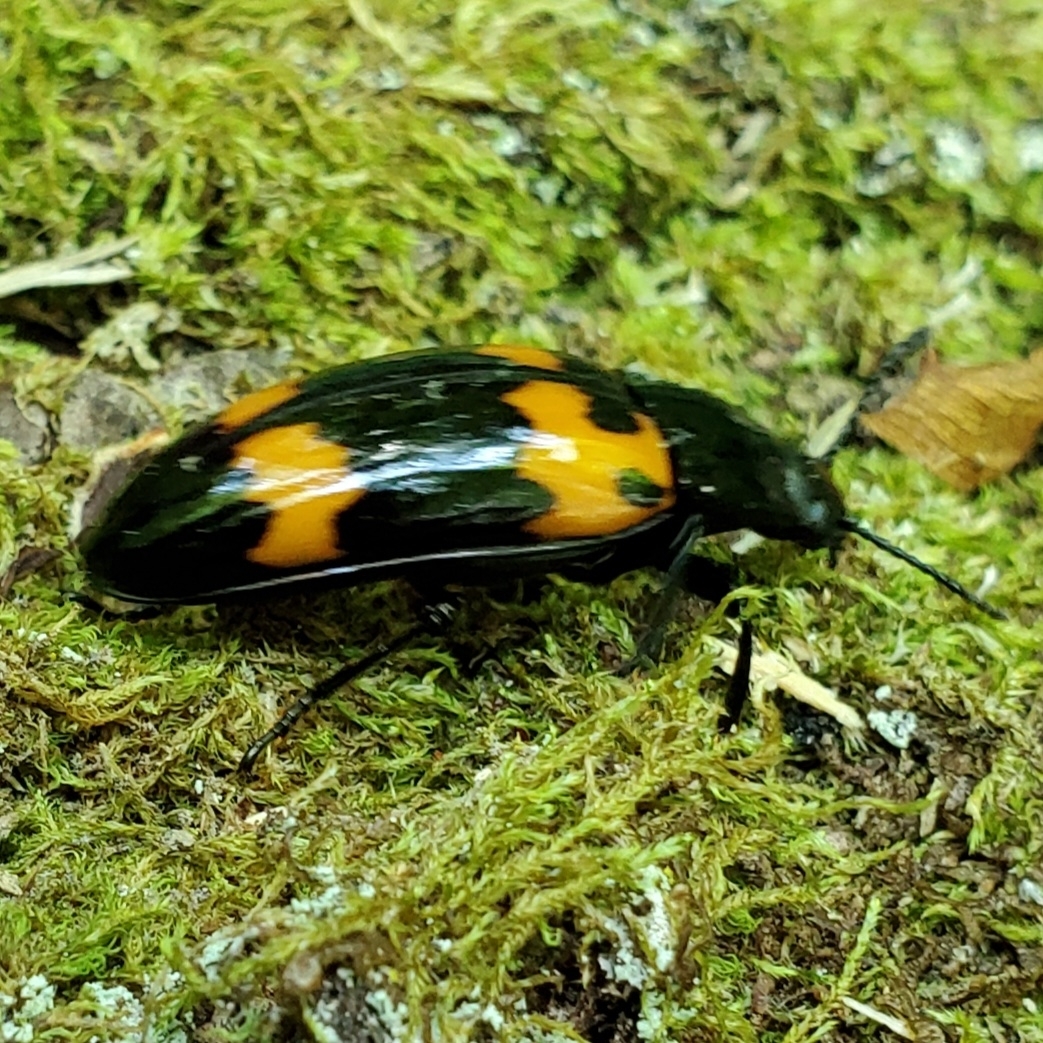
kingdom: Animalia
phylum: Arthropoda
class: Insecta
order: Coleoptera
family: Erotylidae
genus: Megalodacne
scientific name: Megalodacne heros
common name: Pleasing fungus beetle
